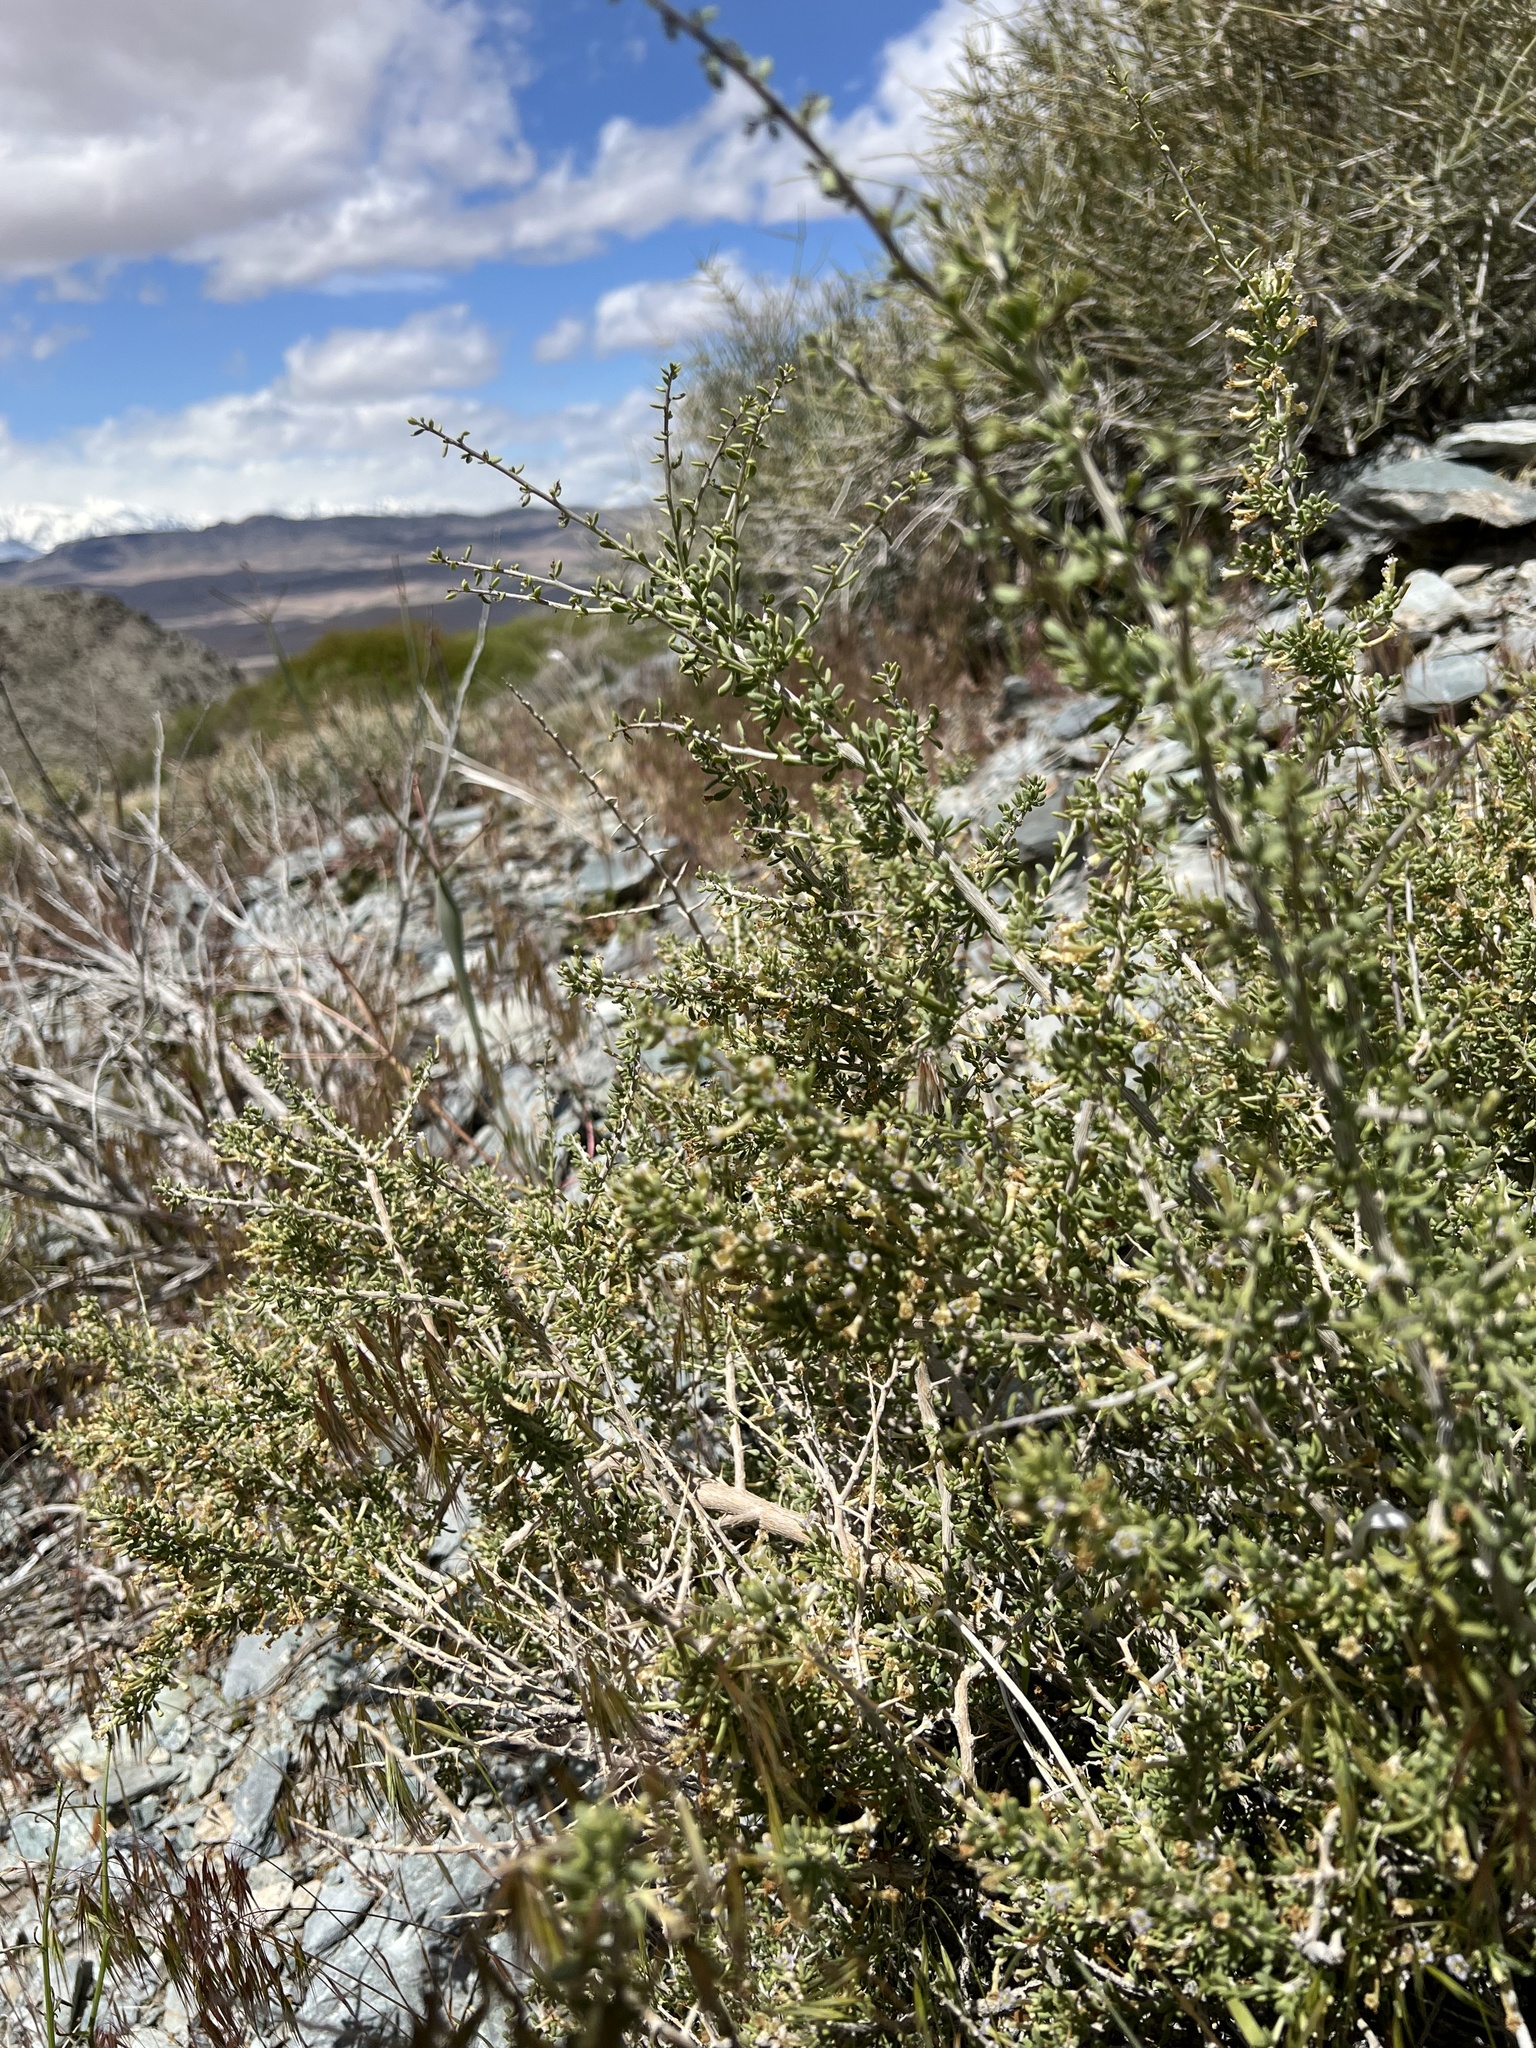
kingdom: Plantae
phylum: Tracheophyta
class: Magnoliopsida
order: Solanales
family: Solanaceae
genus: Lycium
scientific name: Lycium andersonii
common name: Water-jacket
